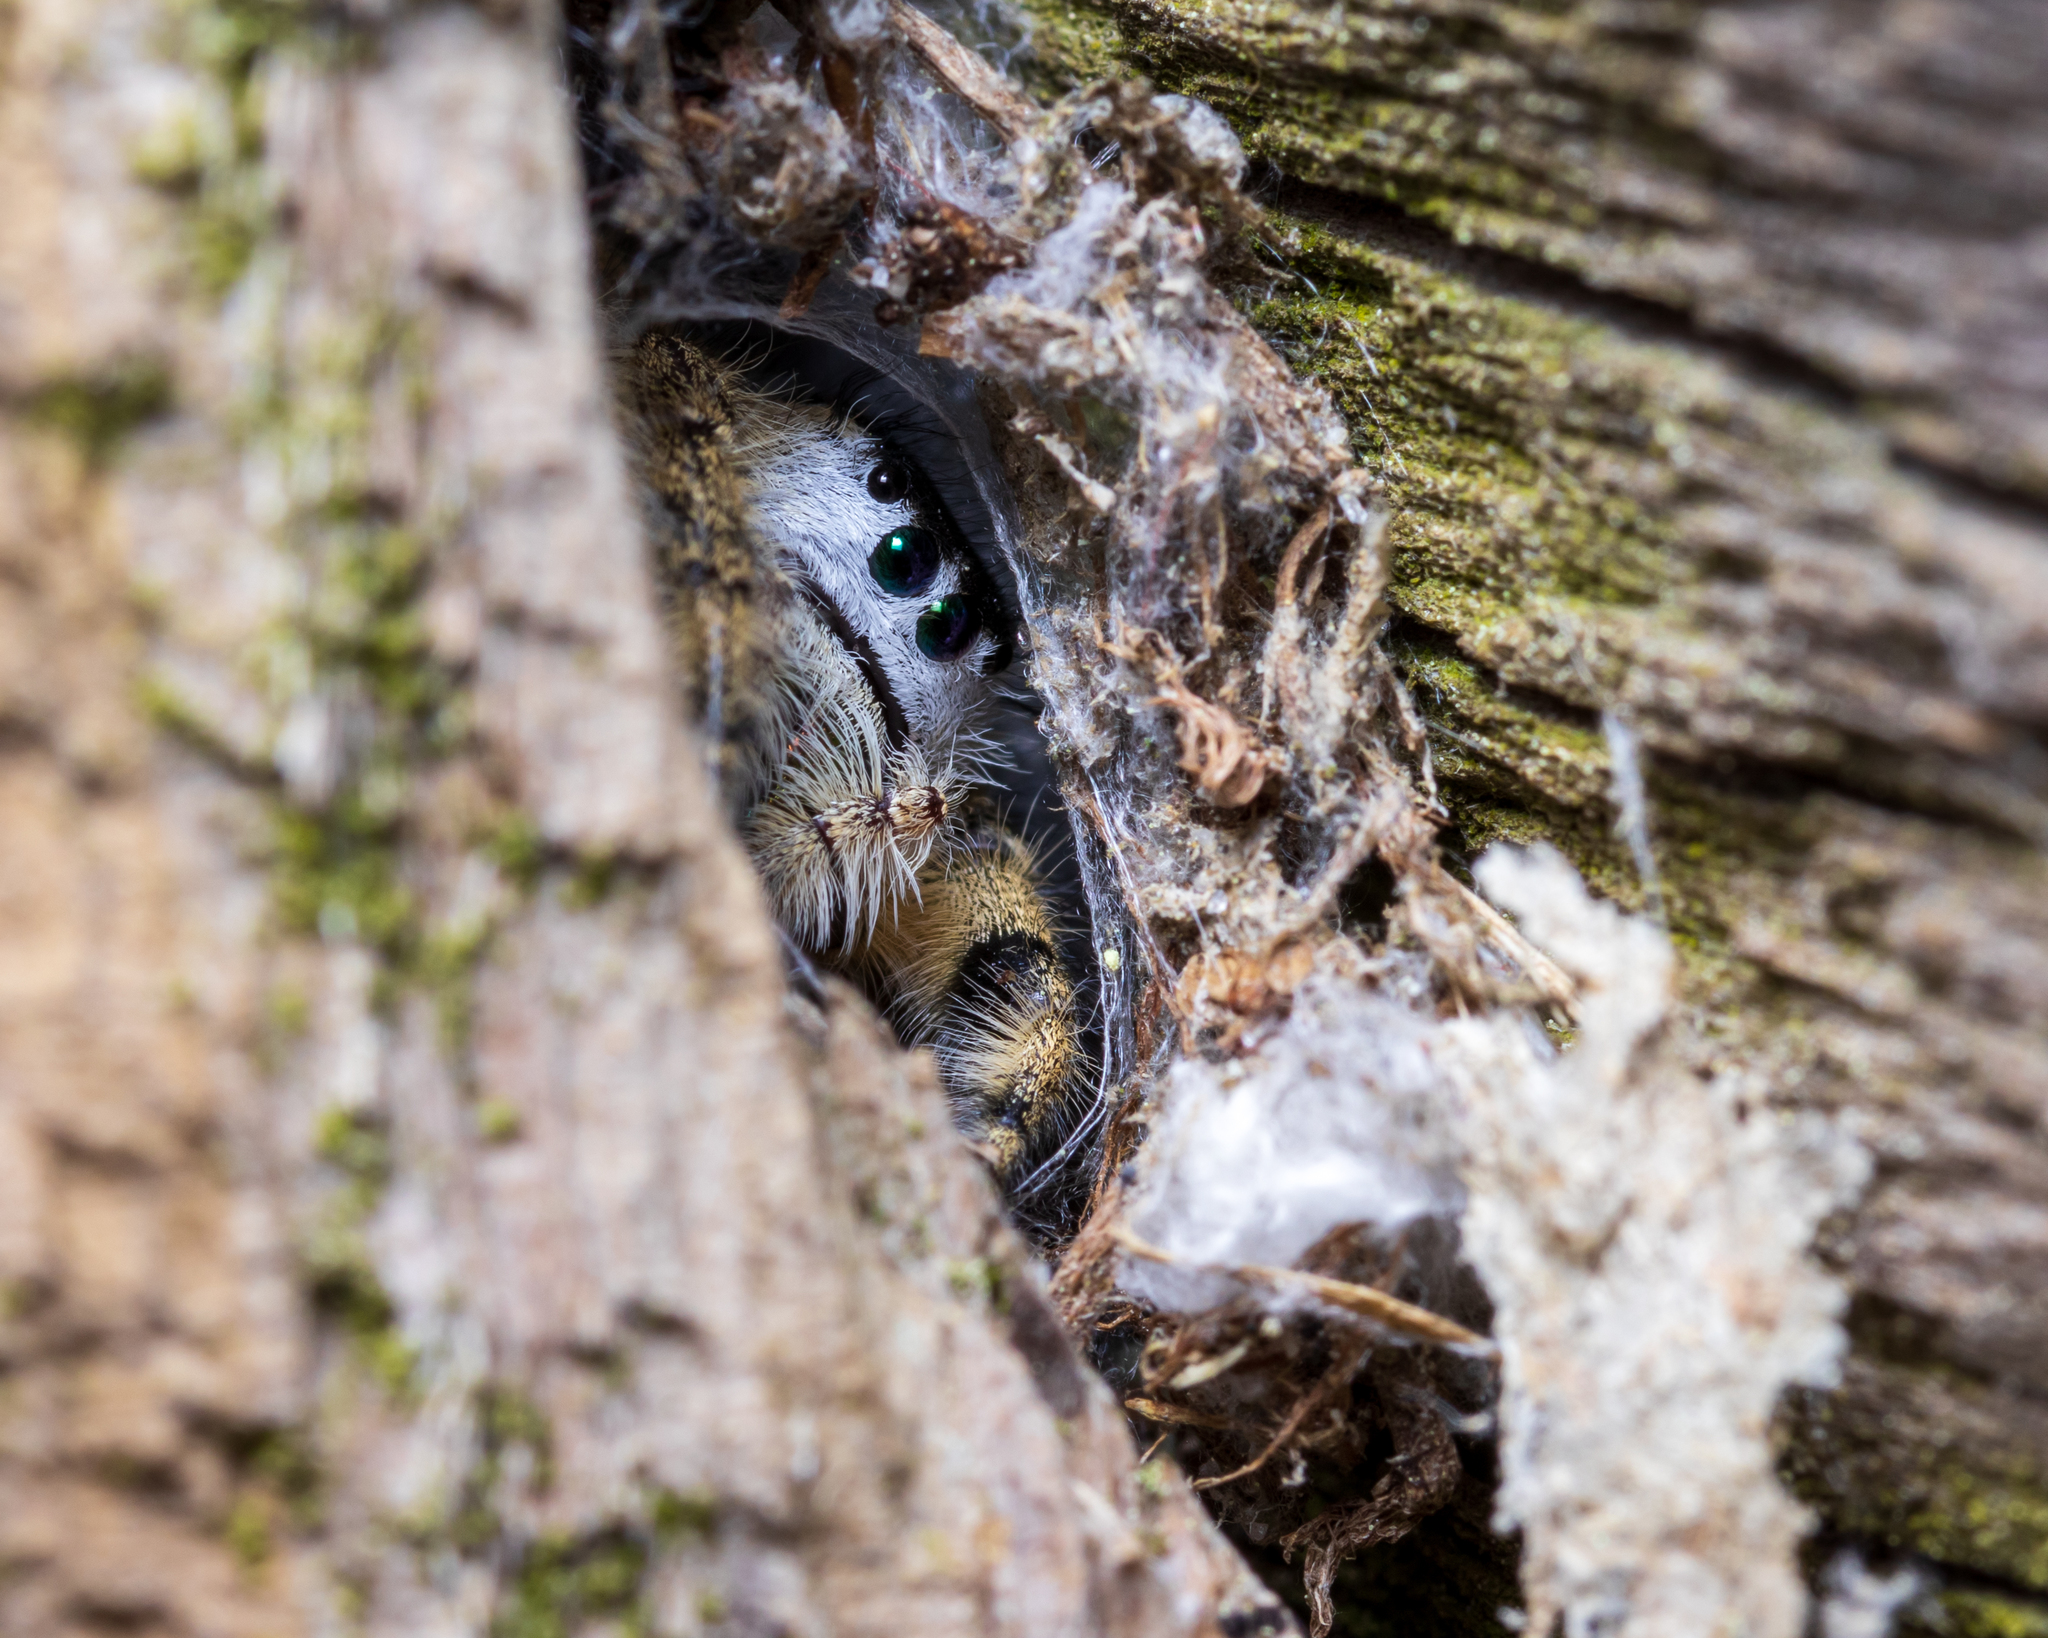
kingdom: Animalia
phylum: Arthropoda
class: Arachnida
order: Araneae
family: Salticidae
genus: Phidippus
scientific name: Phidippus otiosus
